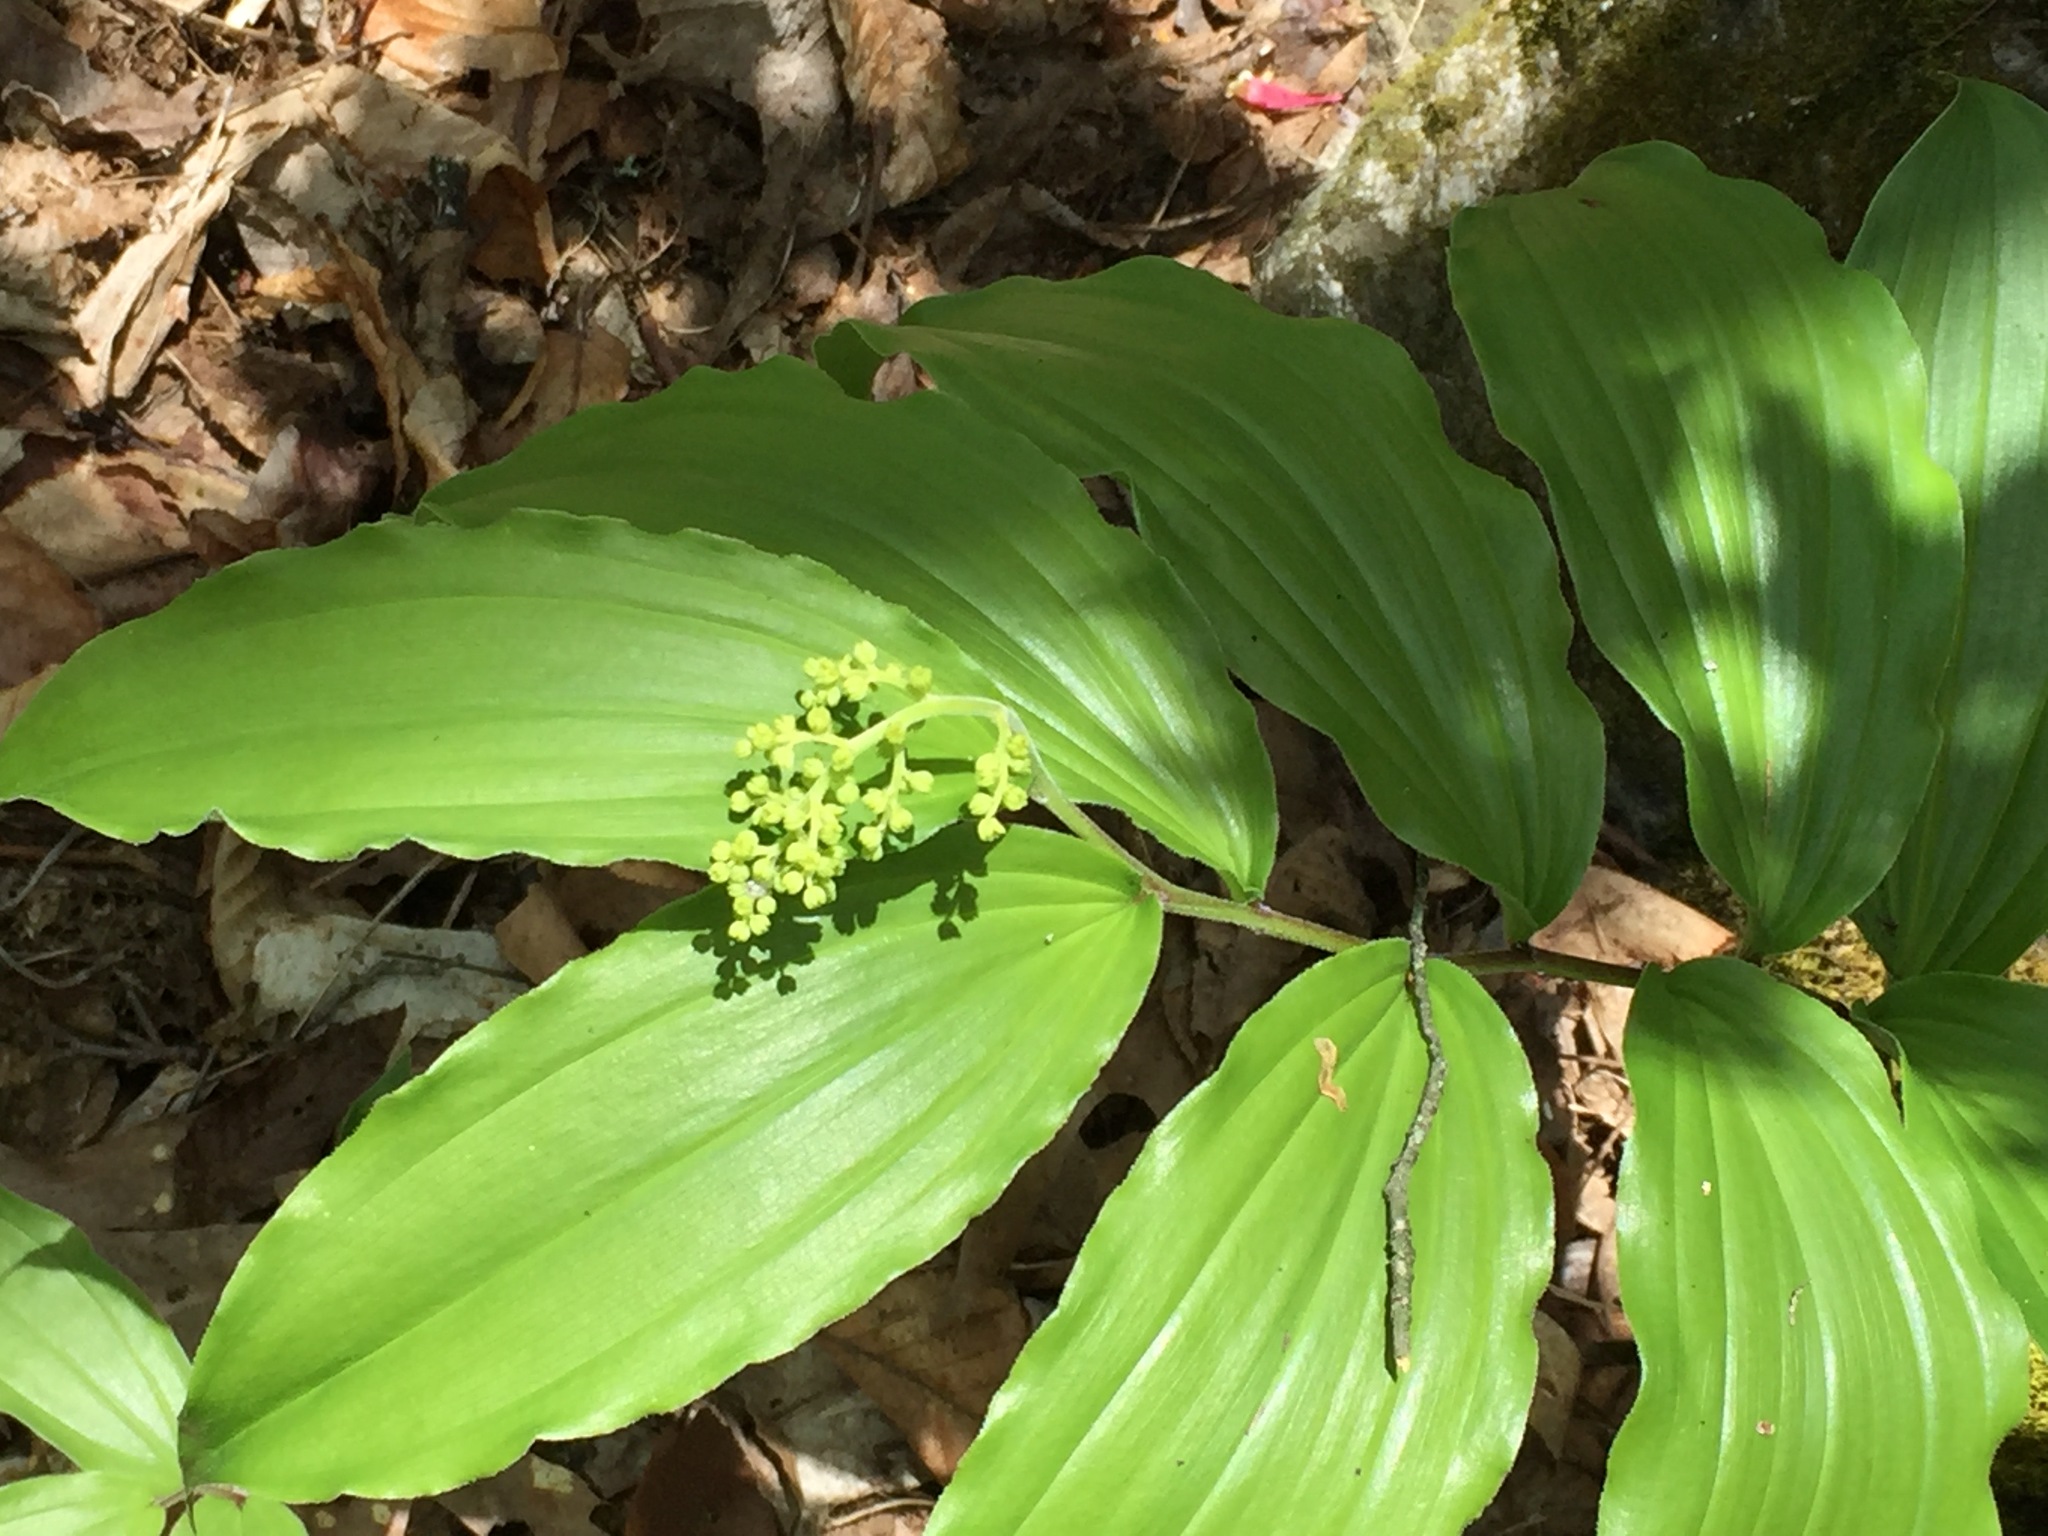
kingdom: Plantae
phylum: Tracheophyta
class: Liliopsida
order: Asparagales
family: Asparagaceae
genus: Maianthemum
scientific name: Maianthemum racemosum
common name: False spikenard
